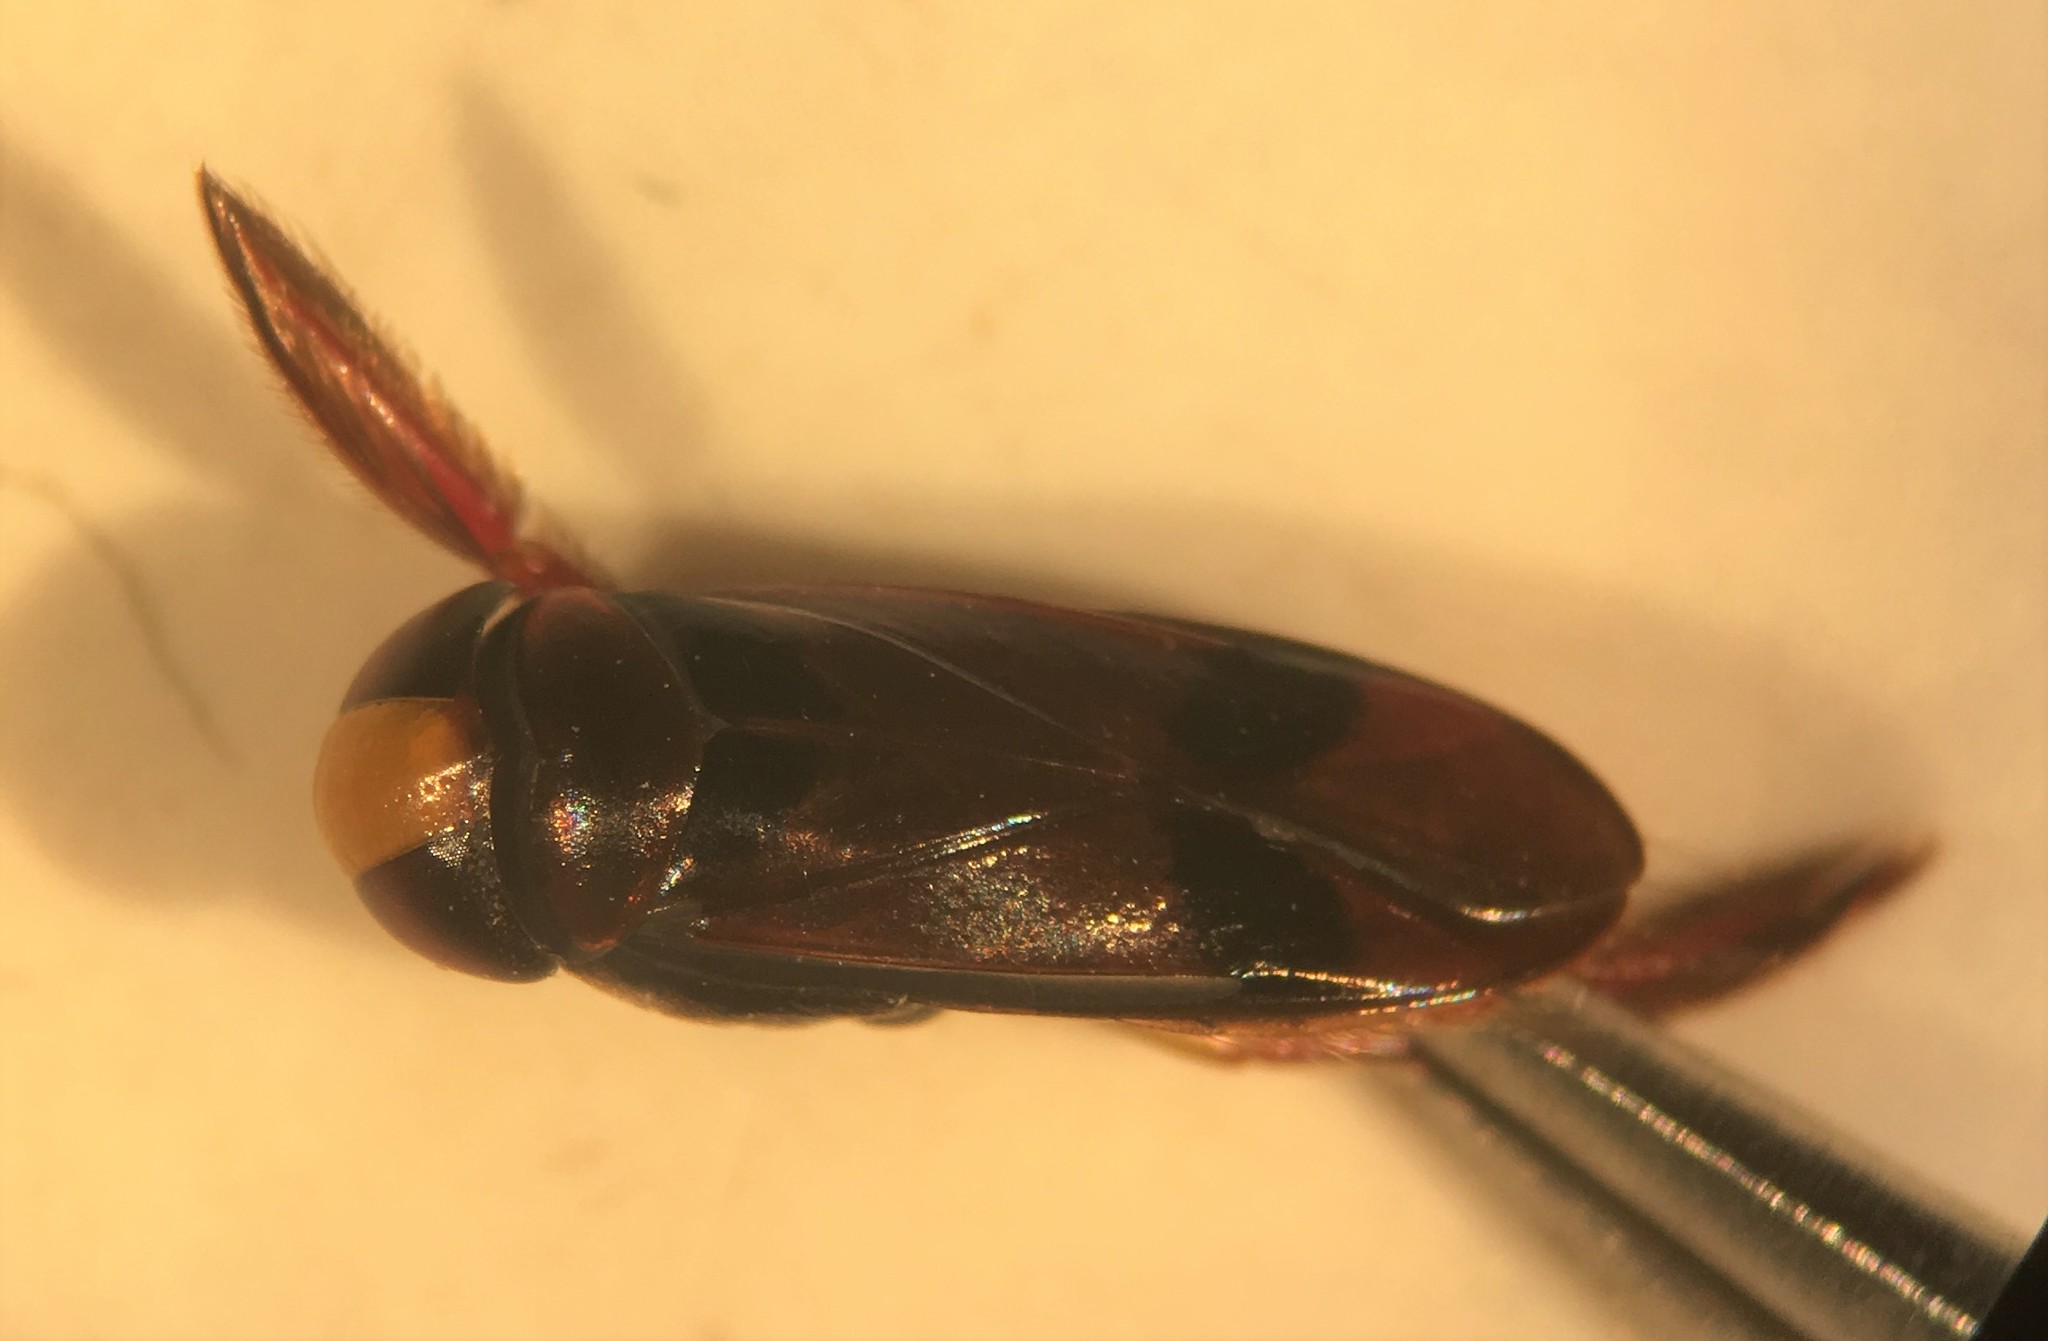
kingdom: Animalia
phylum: Arthropoda
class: Insecta
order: Hemiptera
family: Corixidae
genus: Hesperocorixa
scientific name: Hesperocorixa brimleyi
